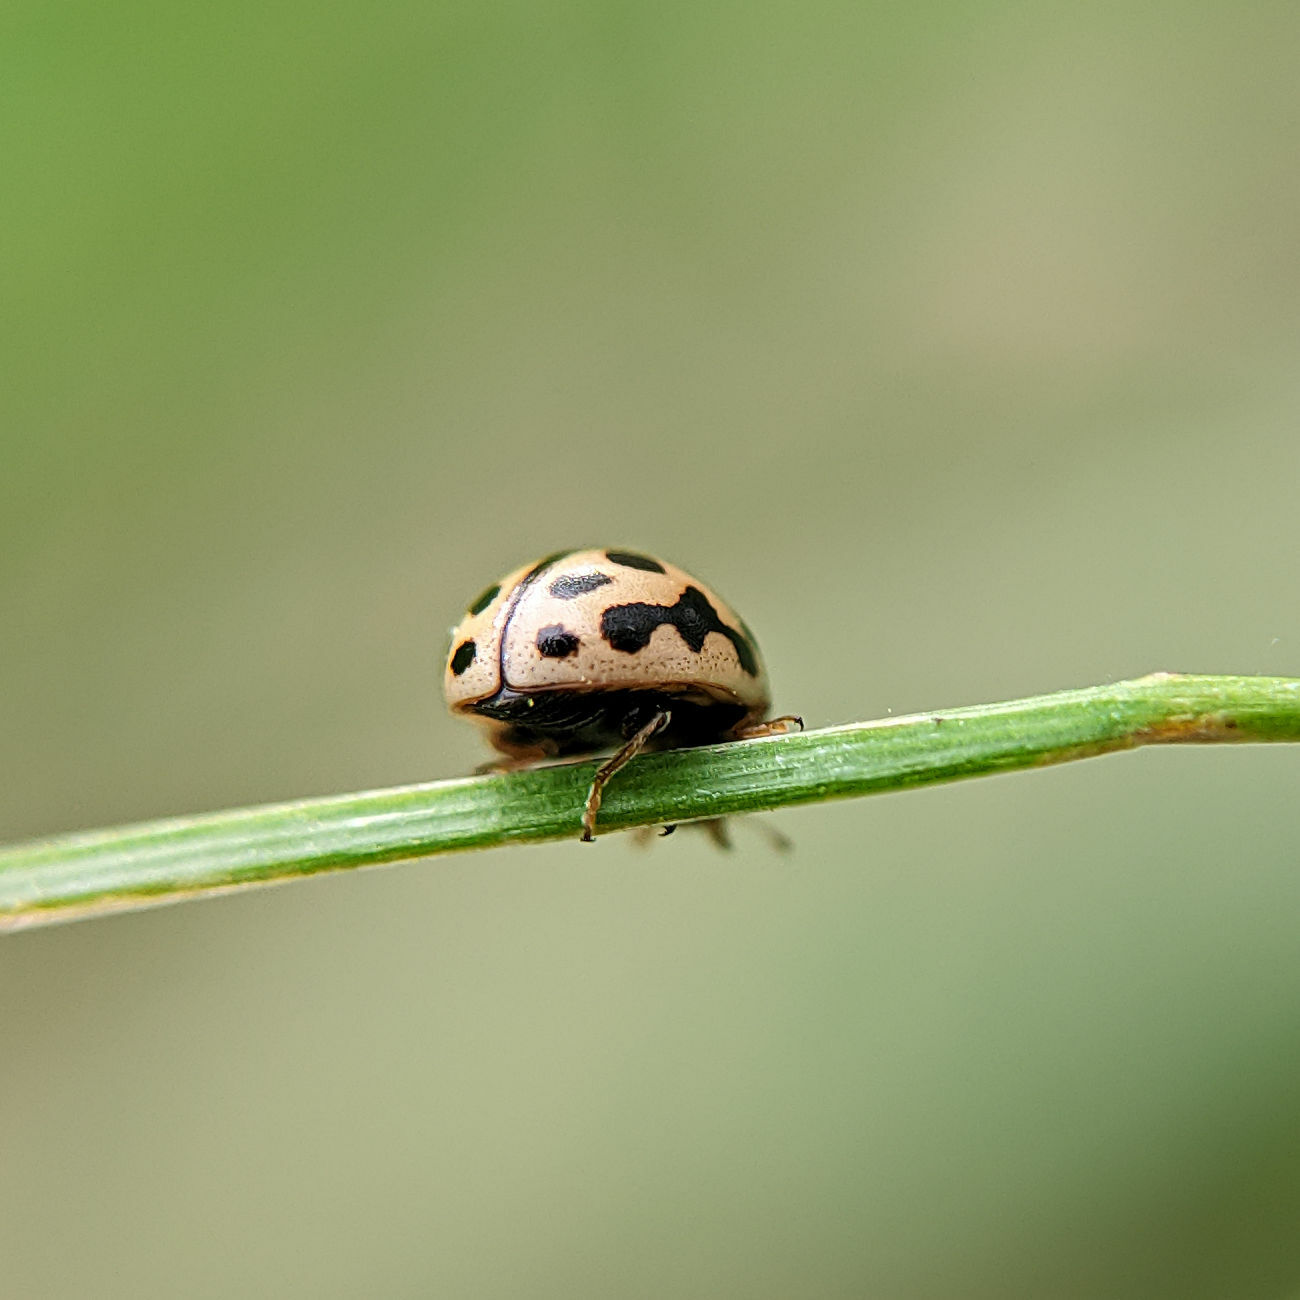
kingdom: Animalia
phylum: Arthropoda
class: Insecta
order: Coleoptera
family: Coccinellidae
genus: Tytthaspis
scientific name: Tytthaspis sedecimpunctata
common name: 16-spot ladybird
